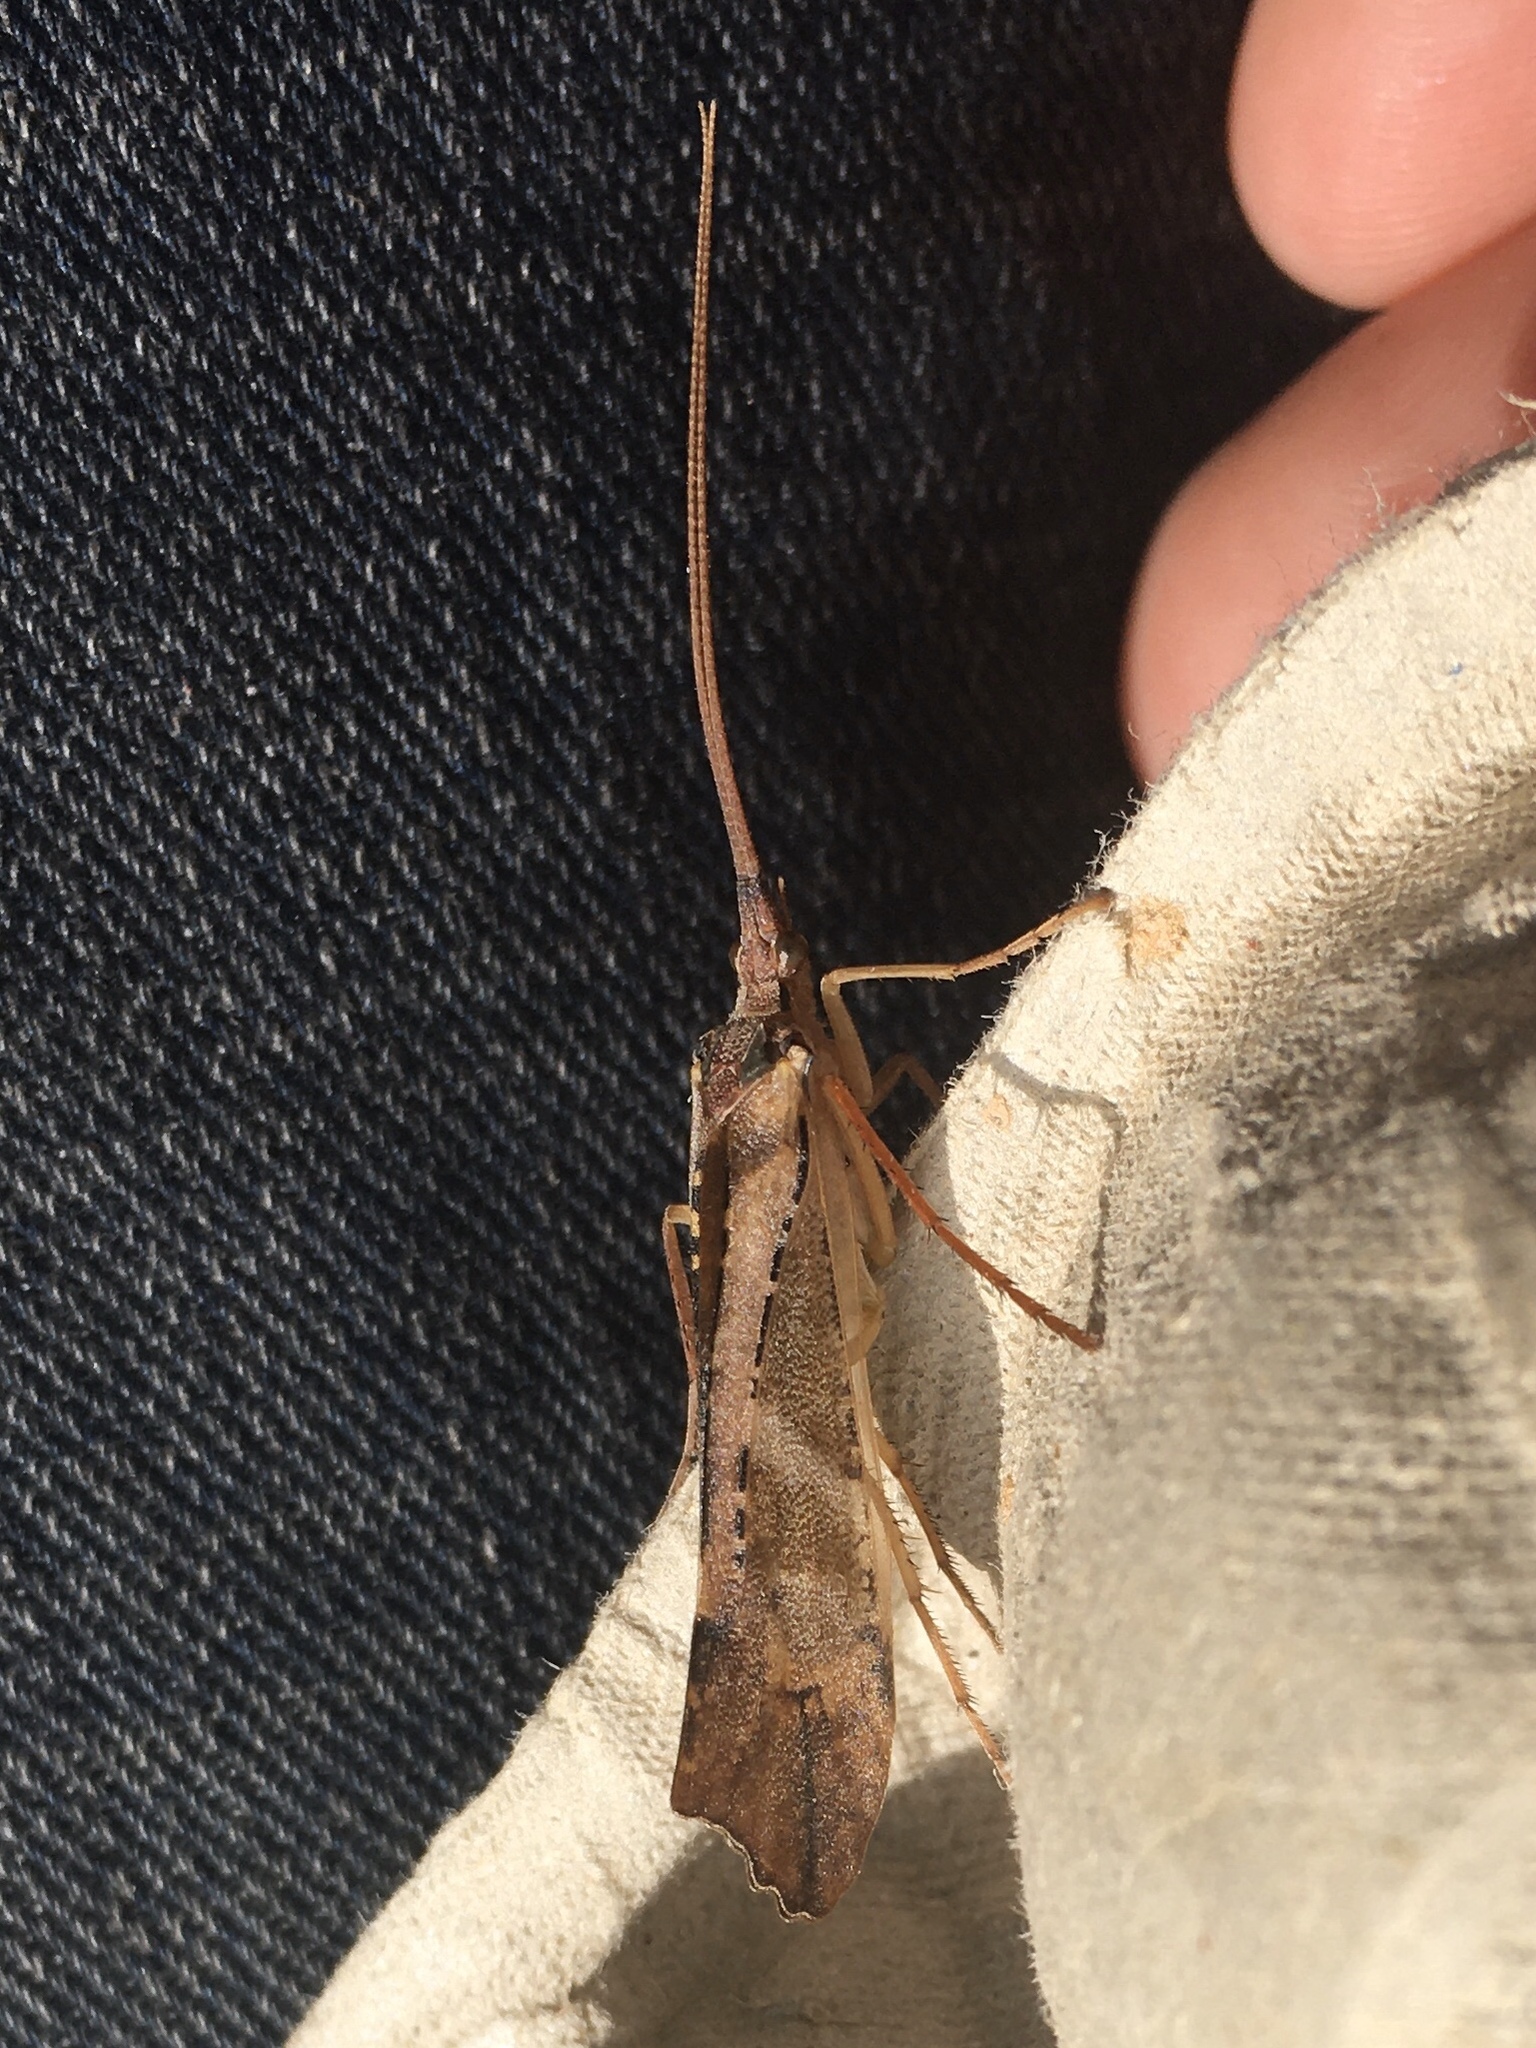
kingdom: Animalia
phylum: Arthropoda
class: Insecta
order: Trichoptera
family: Limnephilidae
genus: Nemotaulius
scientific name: Nemotaulius hostilis
